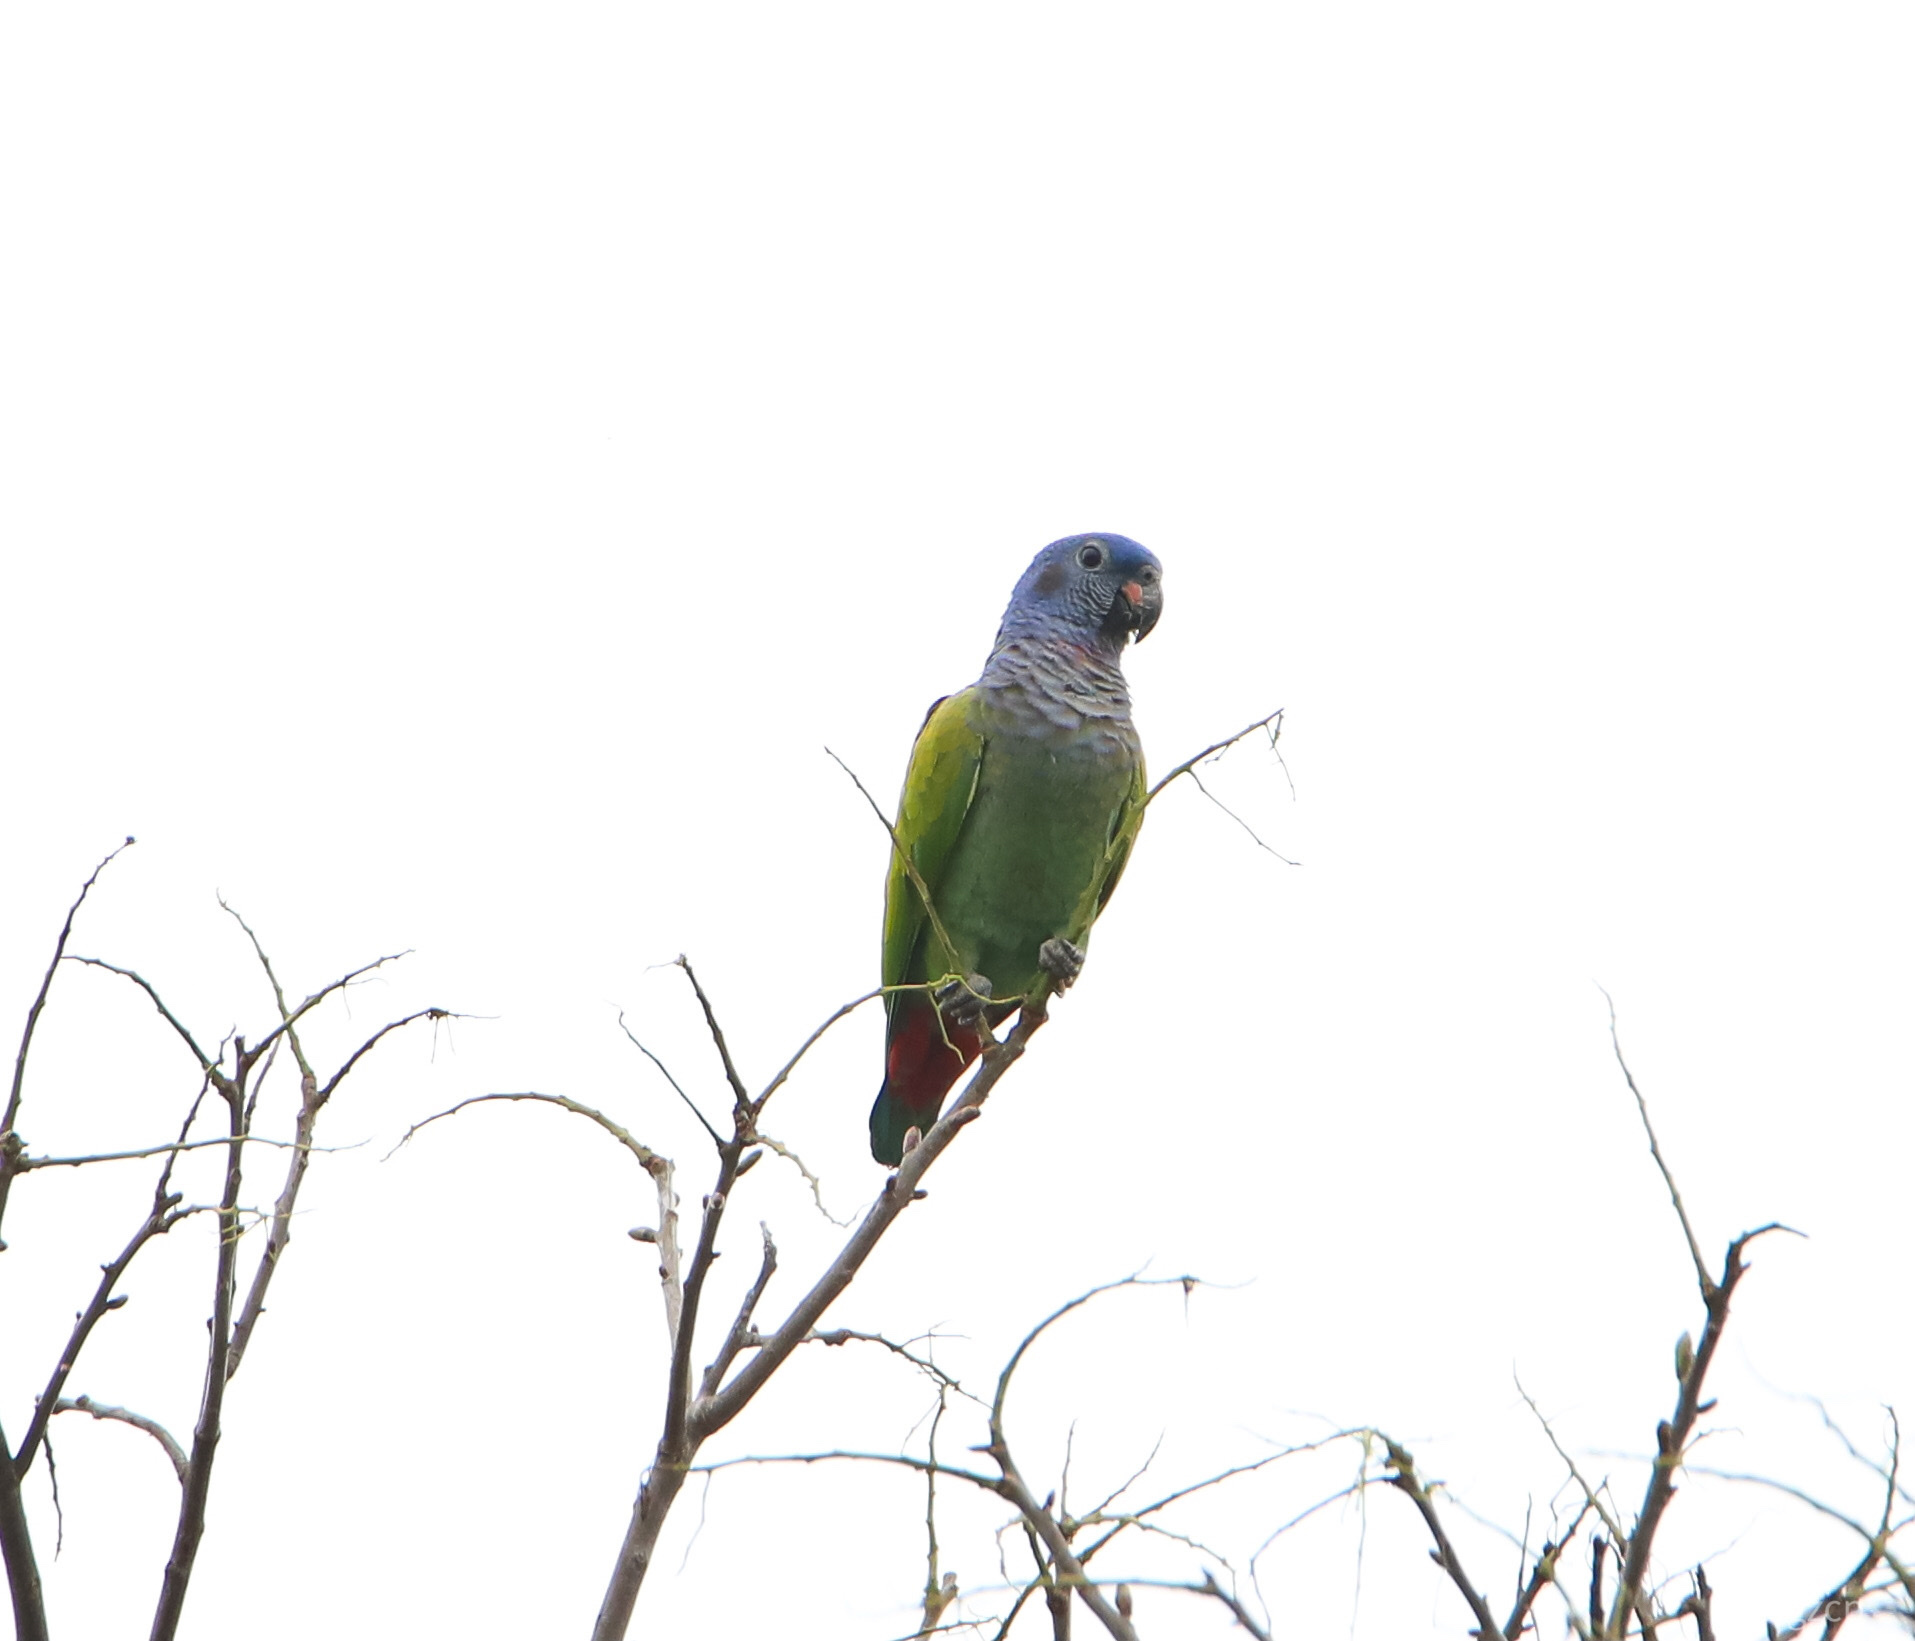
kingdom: Animalia
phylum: Chordata
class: Aves
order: Psittaciformes
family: Psittacidae
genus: Pionus
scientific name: Pionus menstruus
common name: Blue-headed parrot
